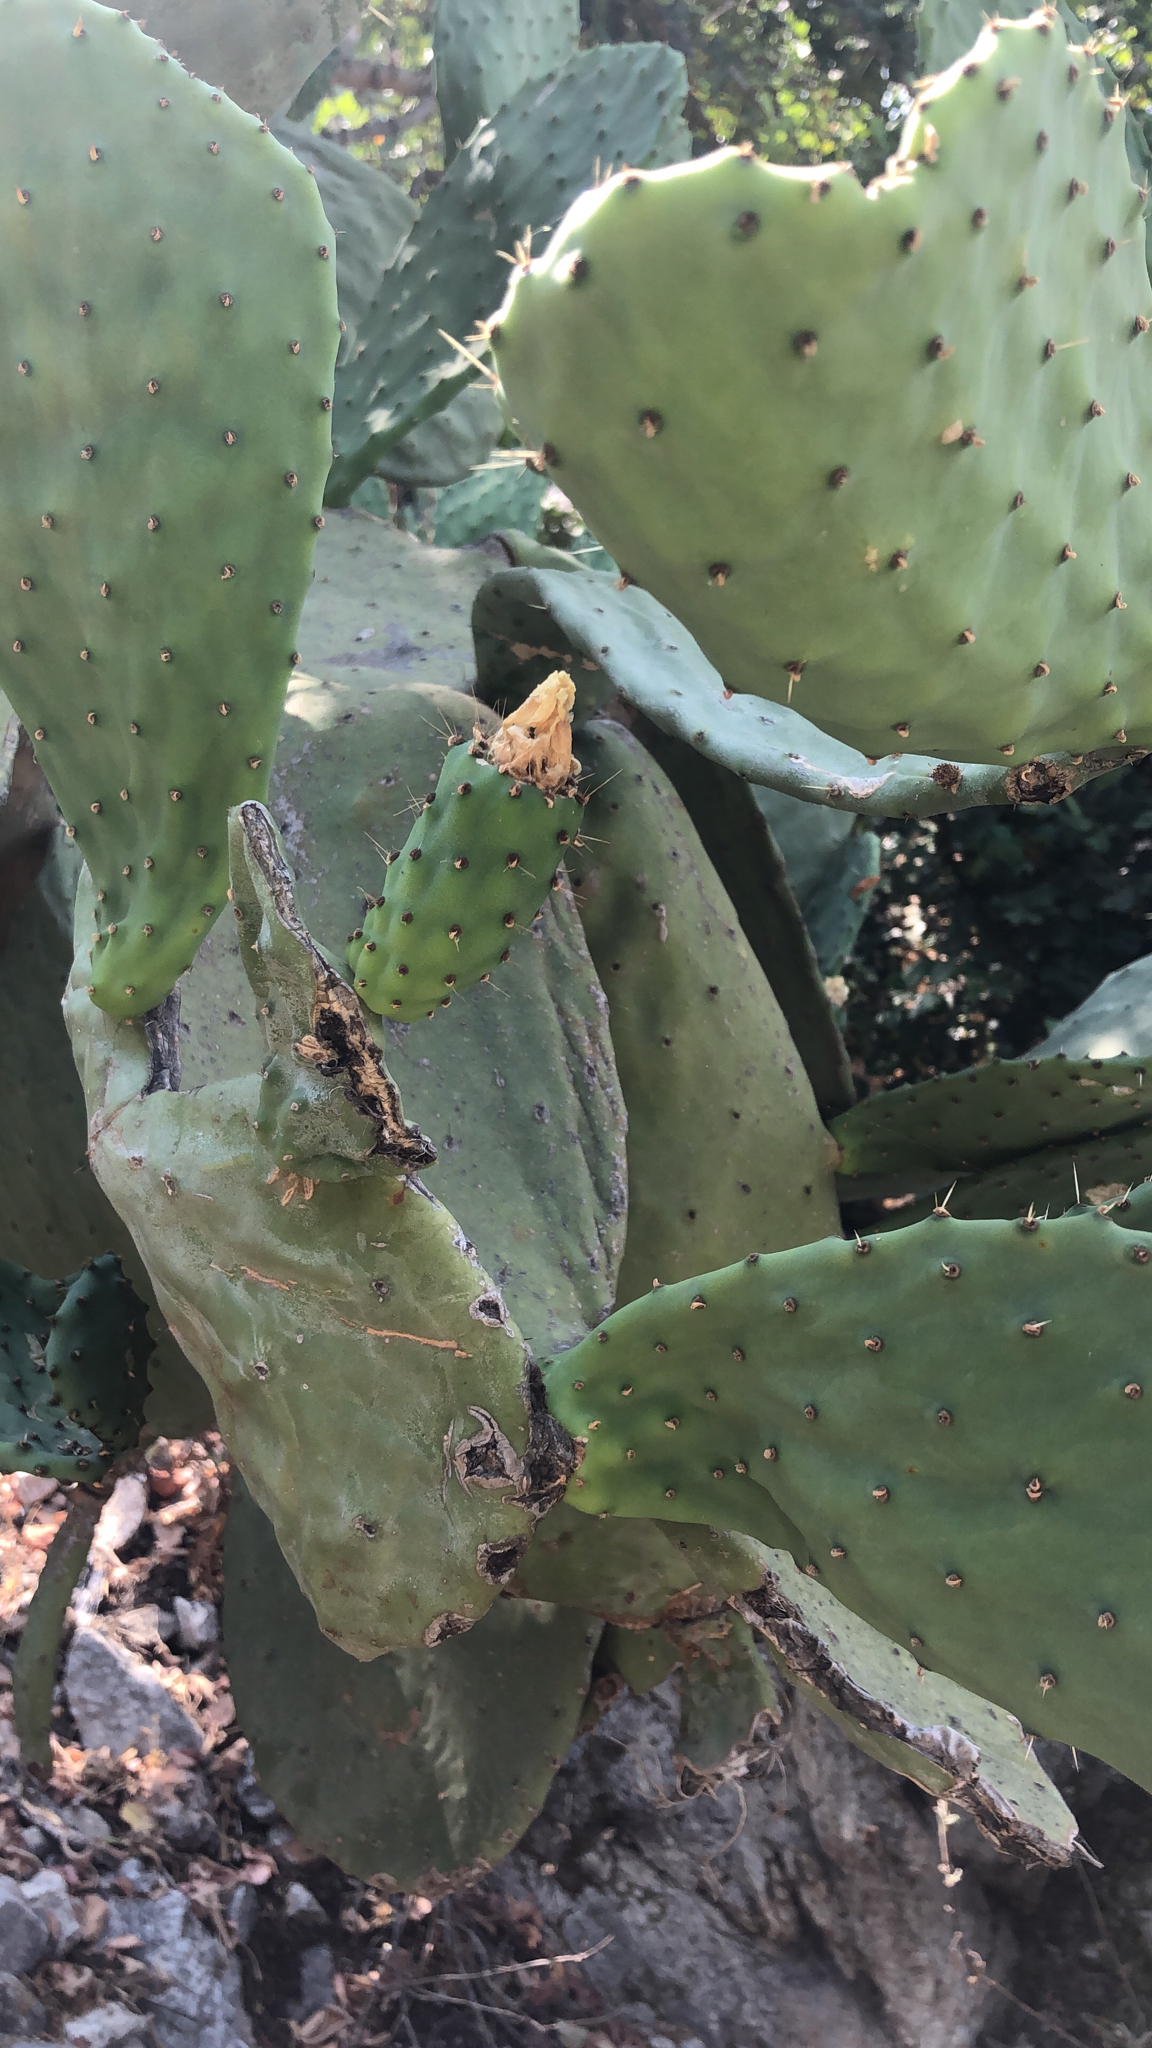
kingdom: Plantae
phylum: Tracheophyta
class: Magnoliopsida
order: Caryophyllales
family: Cactaceae
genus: Opuntia
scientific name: Opuntia ficus-indica
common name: Barbary fig
